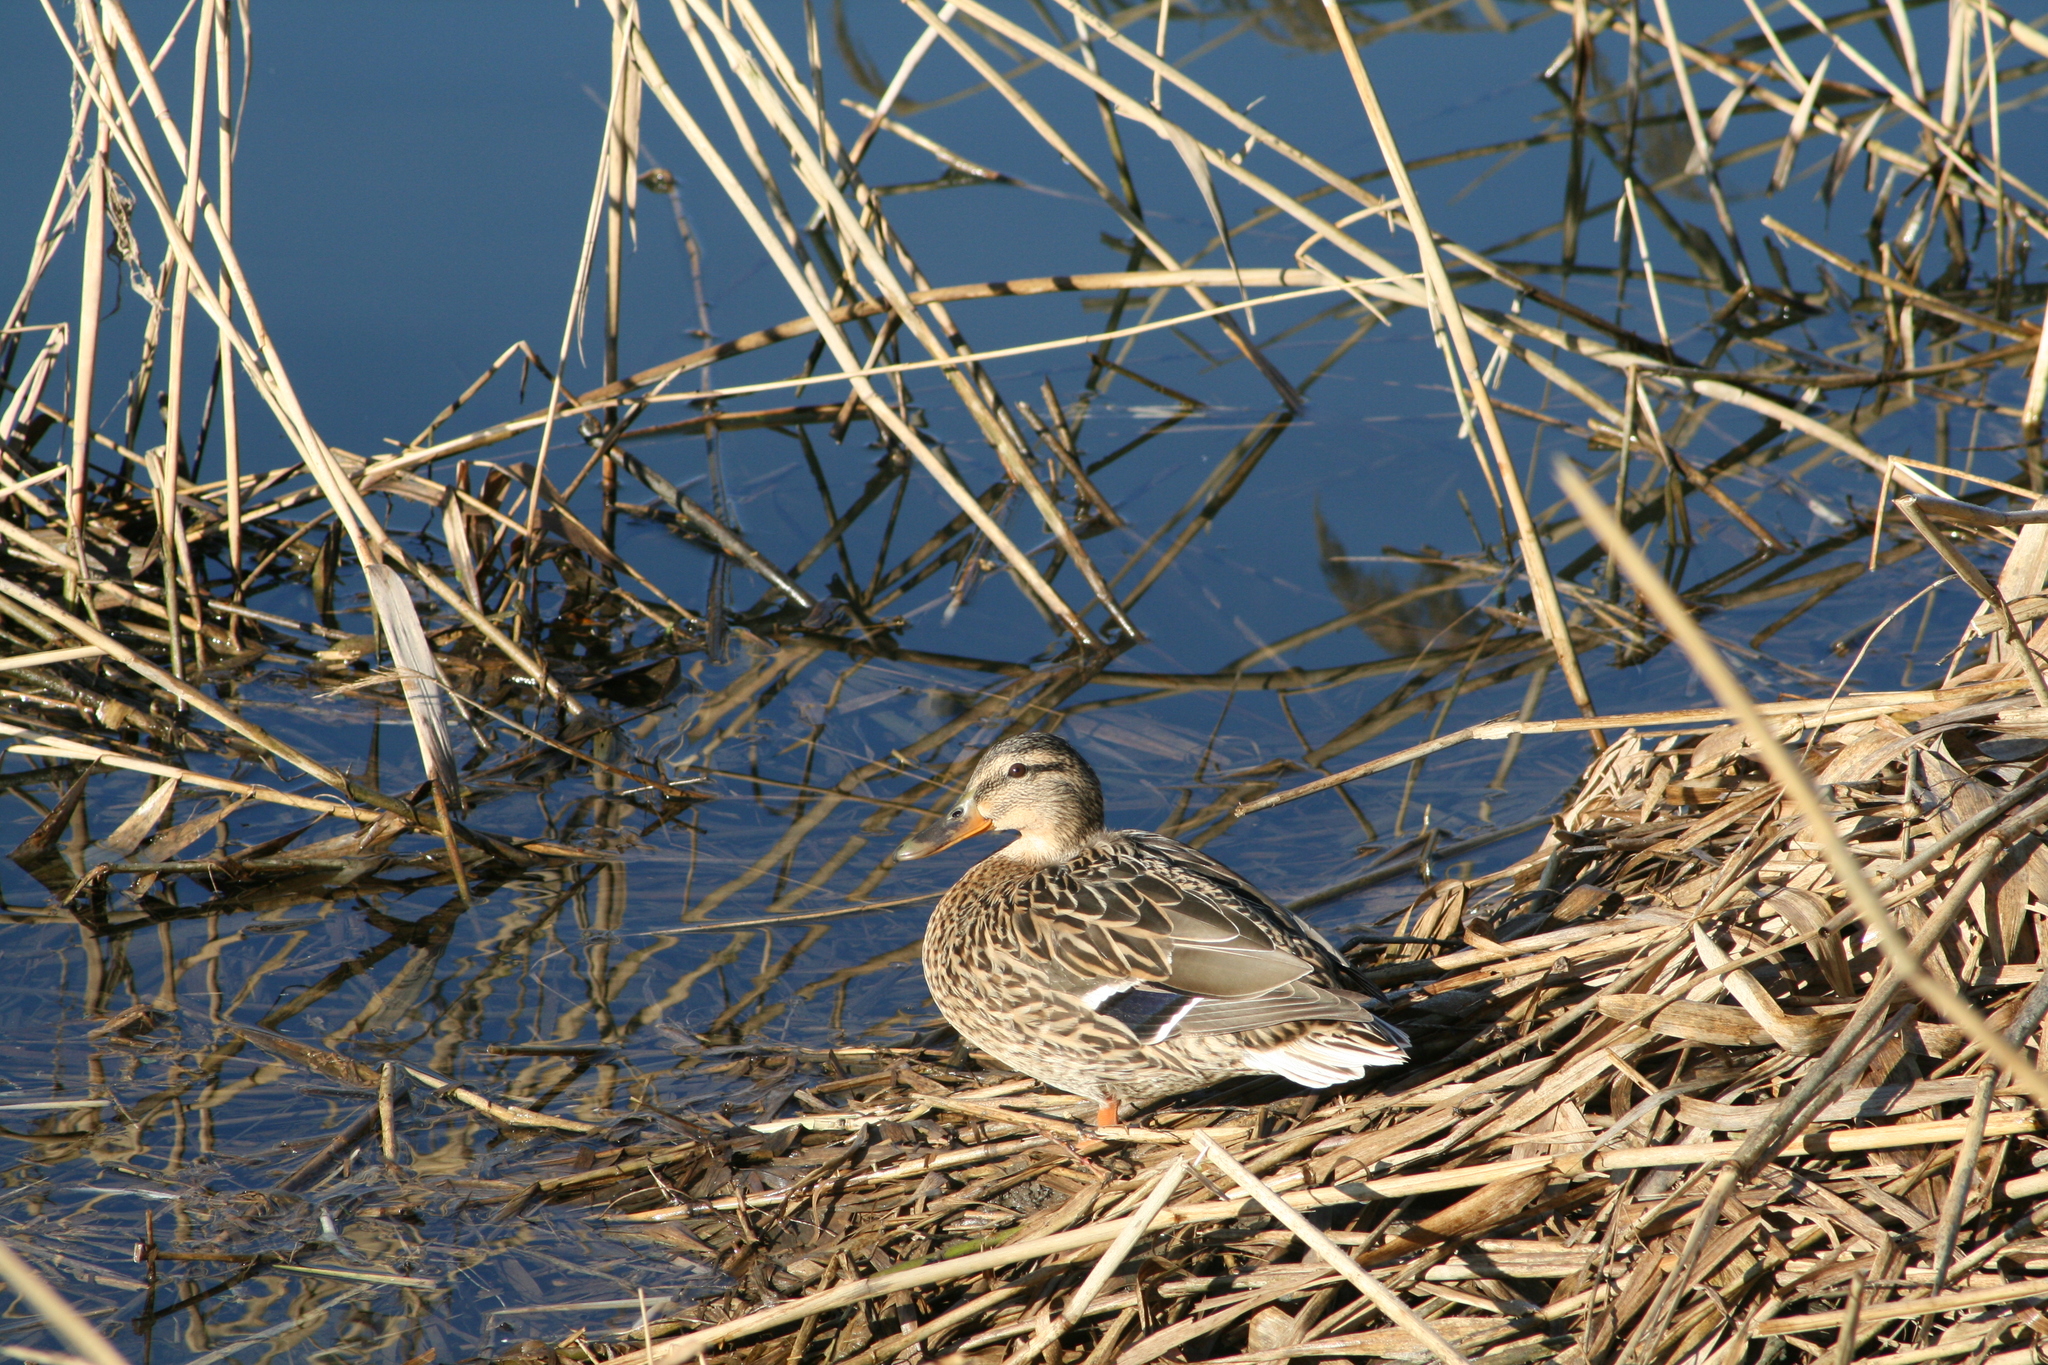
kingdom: Animalia
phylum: Chordata
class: Aves
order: Anseriformes
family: Anatidae
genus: Anas
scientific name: Anas platyrhynchos
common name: Mallard
